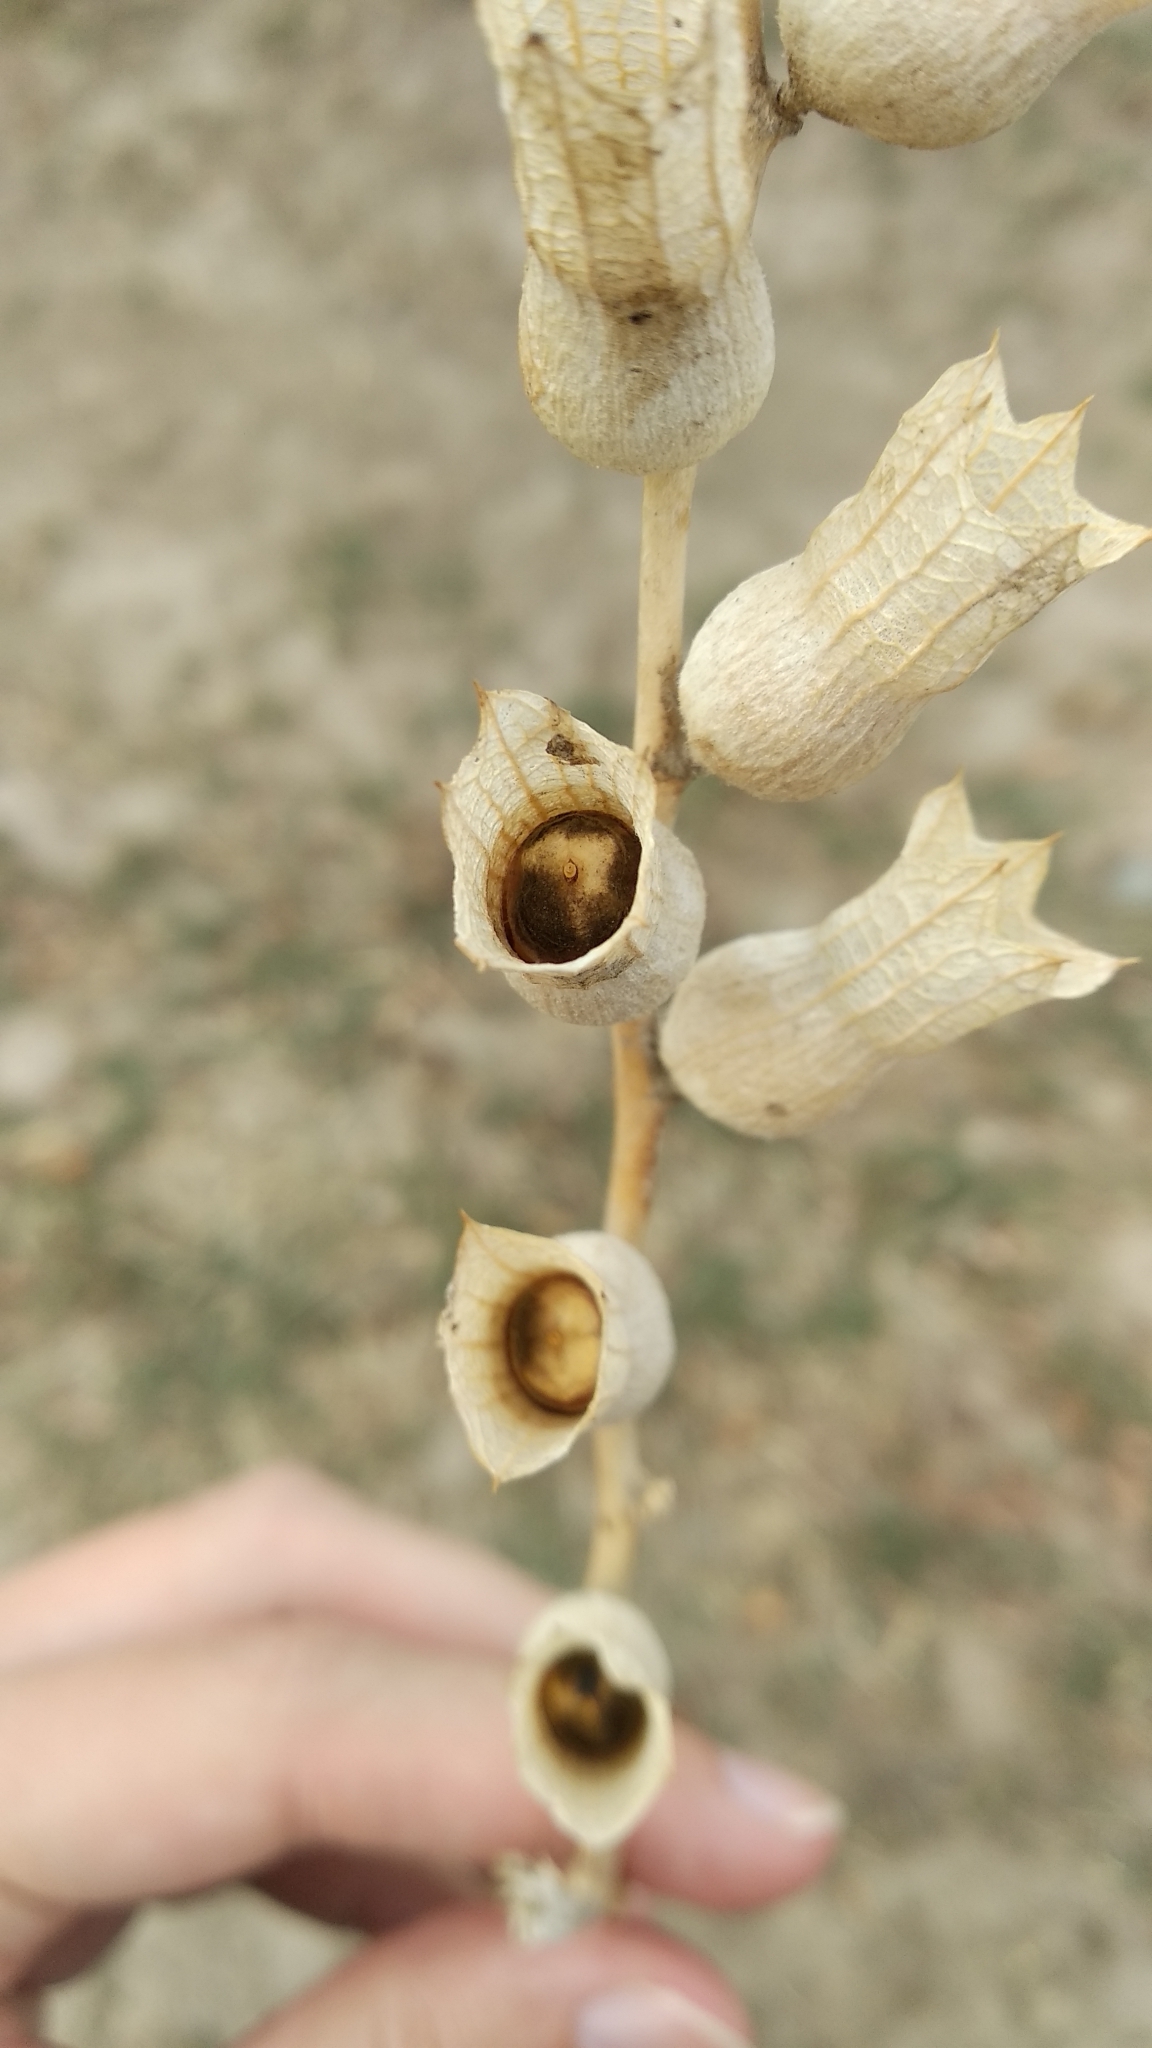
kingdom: Plantae
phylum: Tracheophyta
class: Magnoliopsida
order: Solanales
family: Solanaceae
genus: Hyoscyamus
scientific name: Hyoscyamus niger
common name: Henbane
